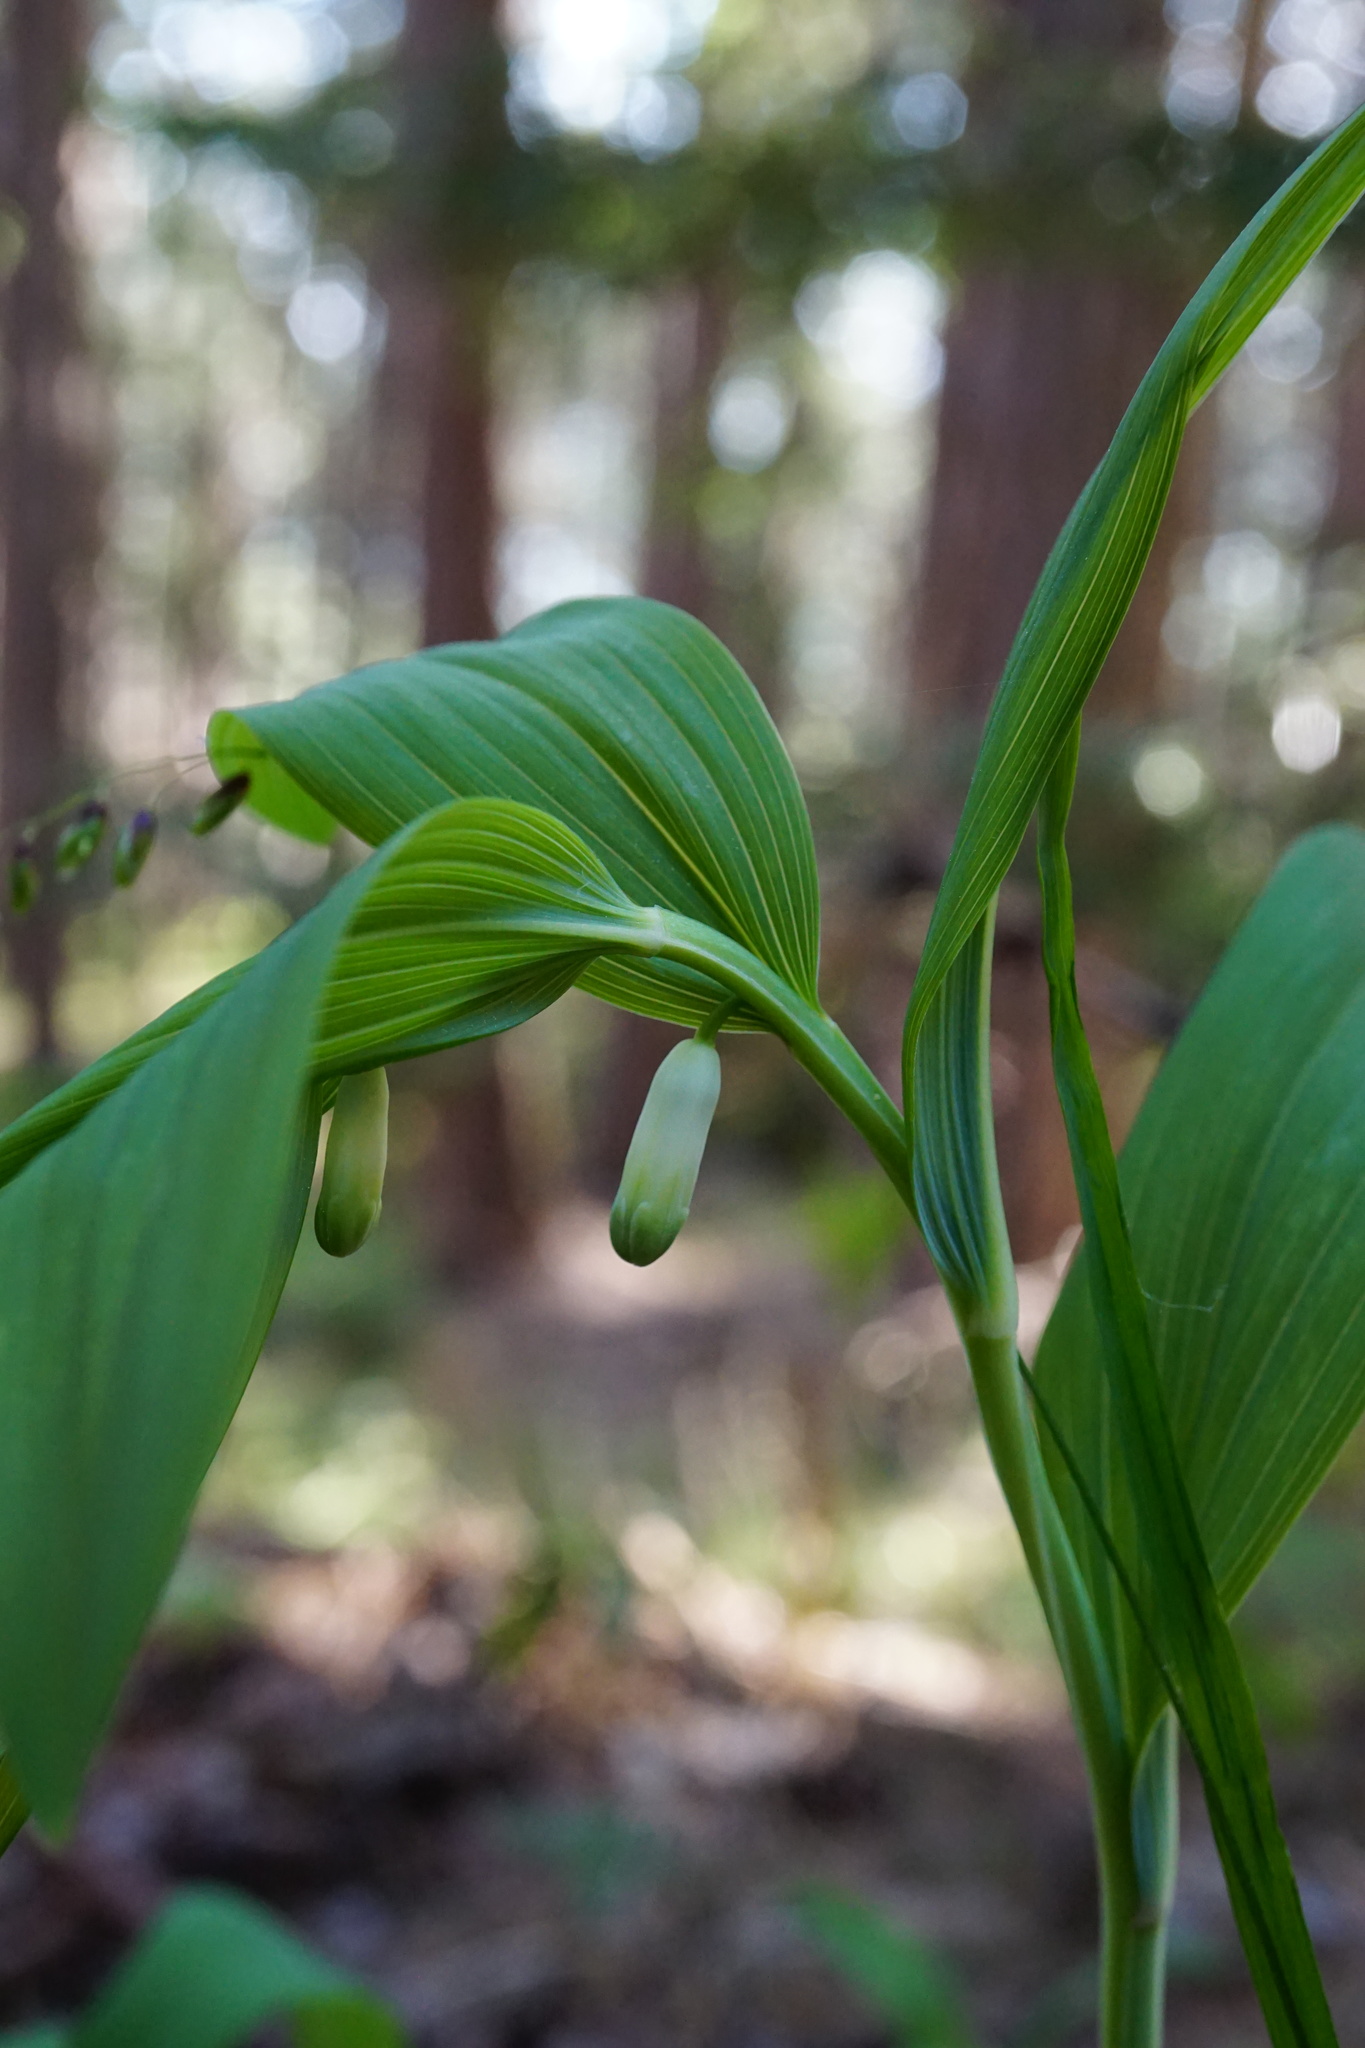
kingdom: Plantae
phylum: Tracheophyta
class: Liliopsida
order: Asparagales
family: Asparagaceae
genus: Polygonatum
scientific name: Polygonatum odoratum
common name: Angular solomon's-seal
